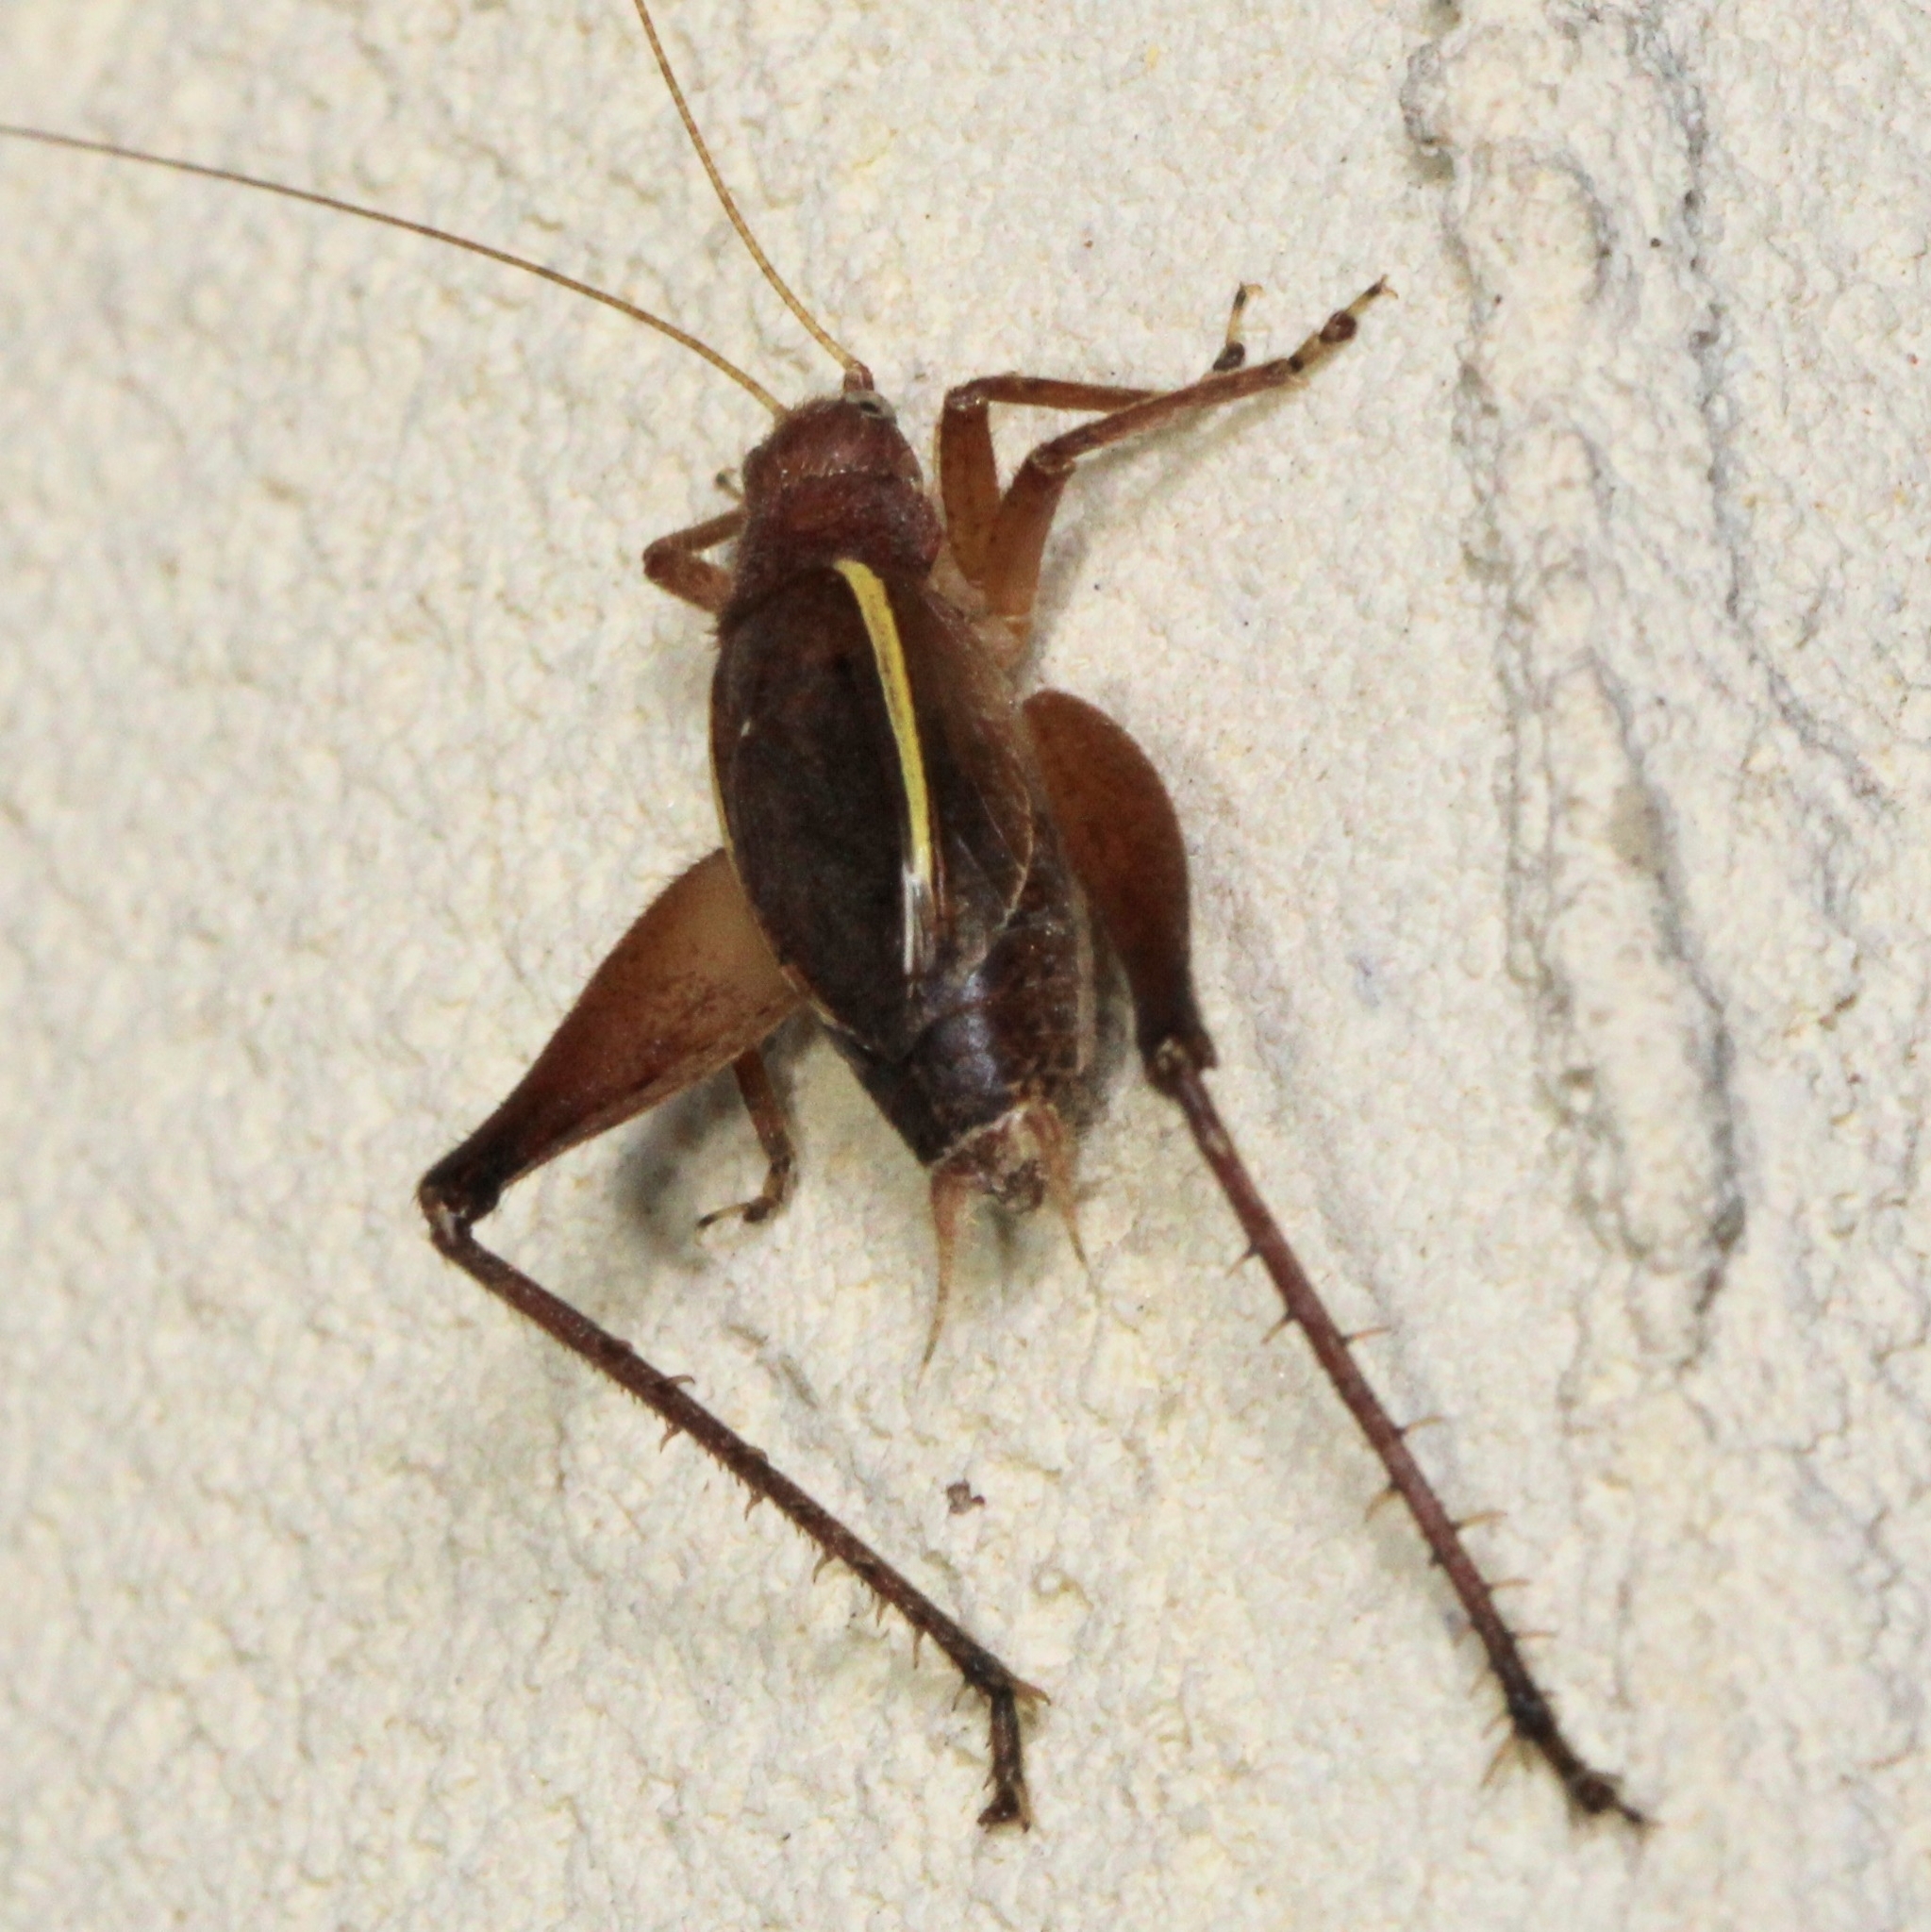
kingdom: Animalia
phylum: Arthropoda
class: Insecta
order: Orthoptera
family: Gryllidae
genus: Hapithus
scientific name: Hapithus agitator
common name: Restless bush cricket
